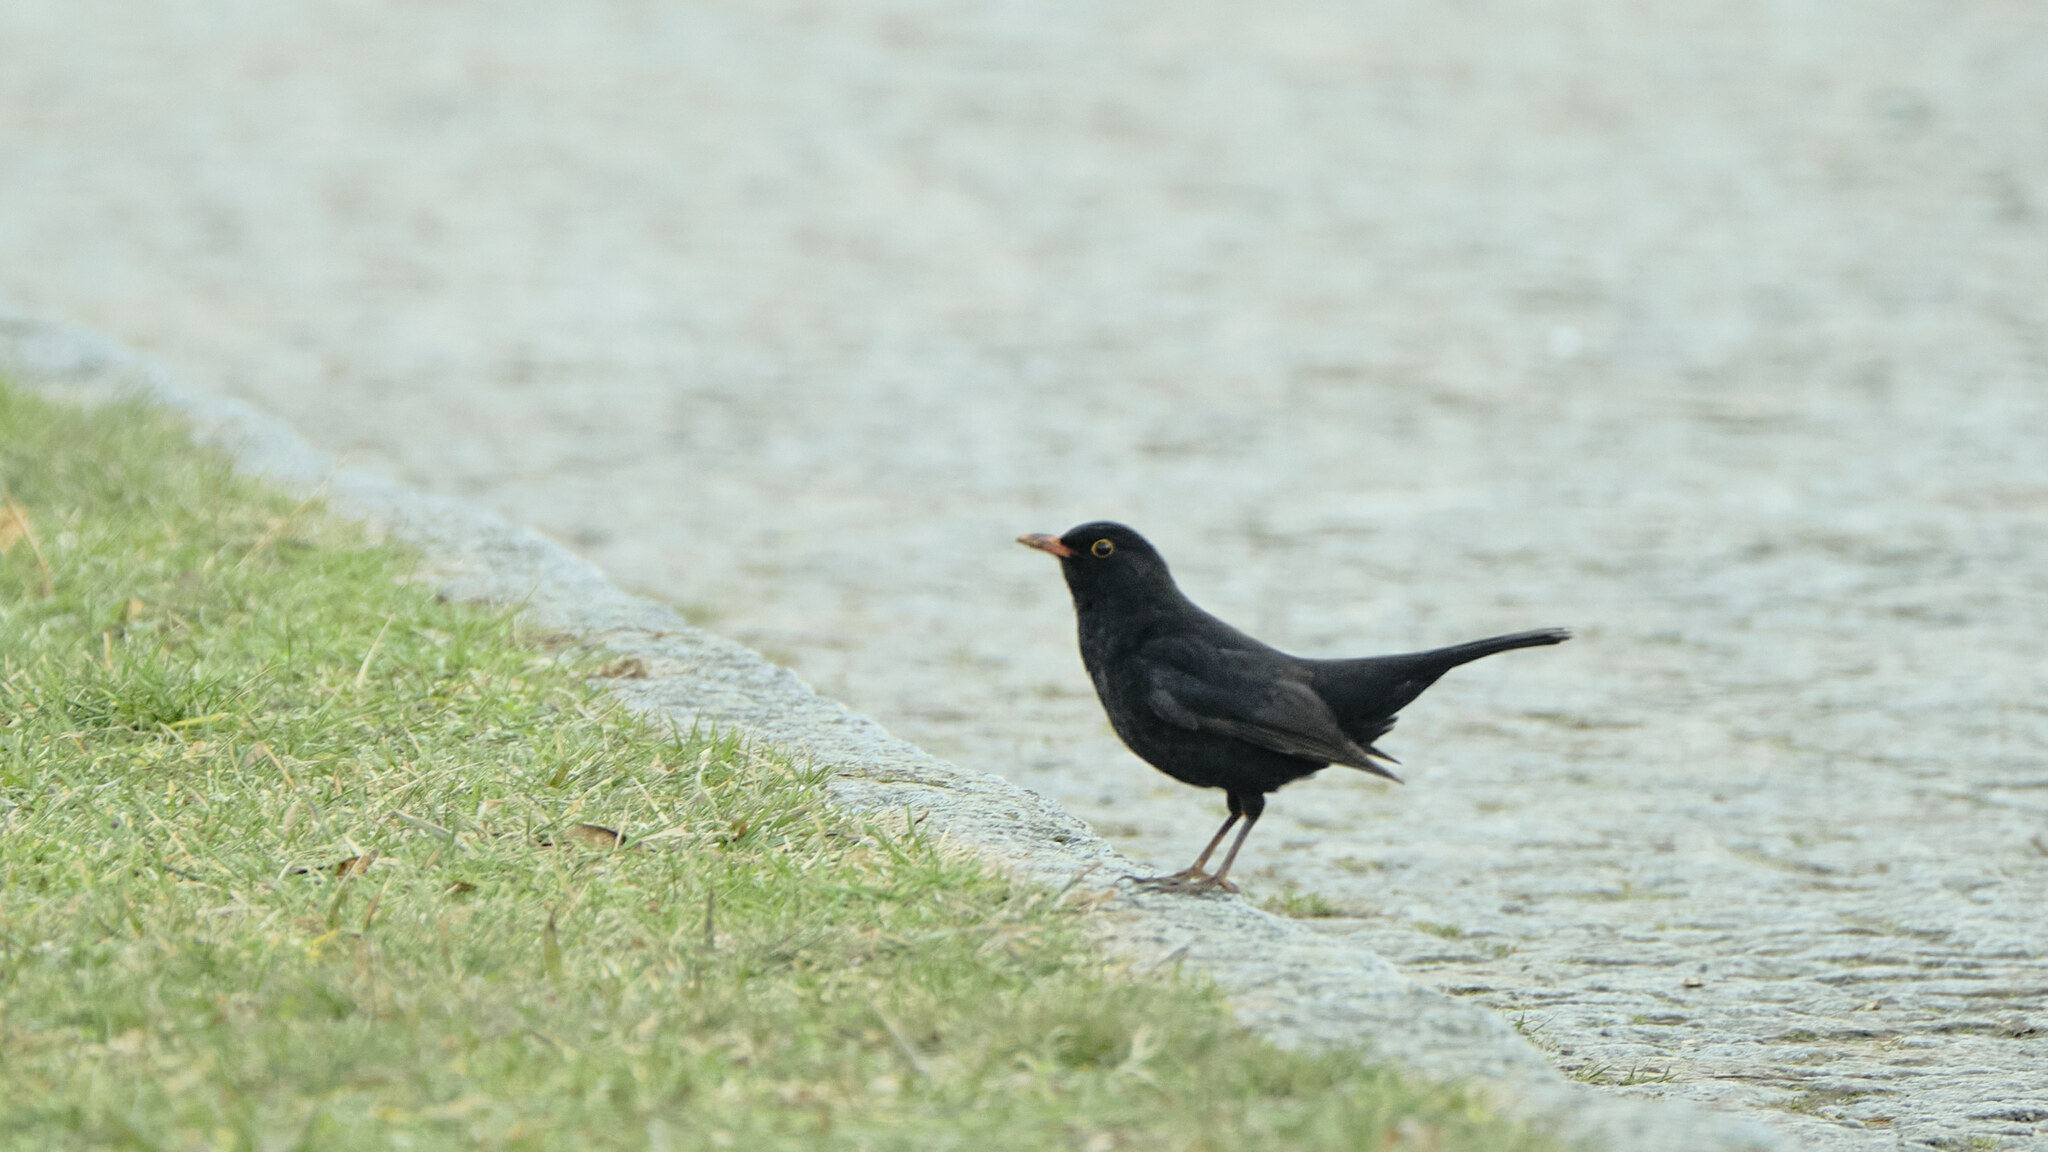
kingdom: Animalia
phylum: Chordata
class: Aves
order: Passeriformes
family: Turdidae
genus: Turdus
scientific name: Turdus merula
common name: Common blackbird
